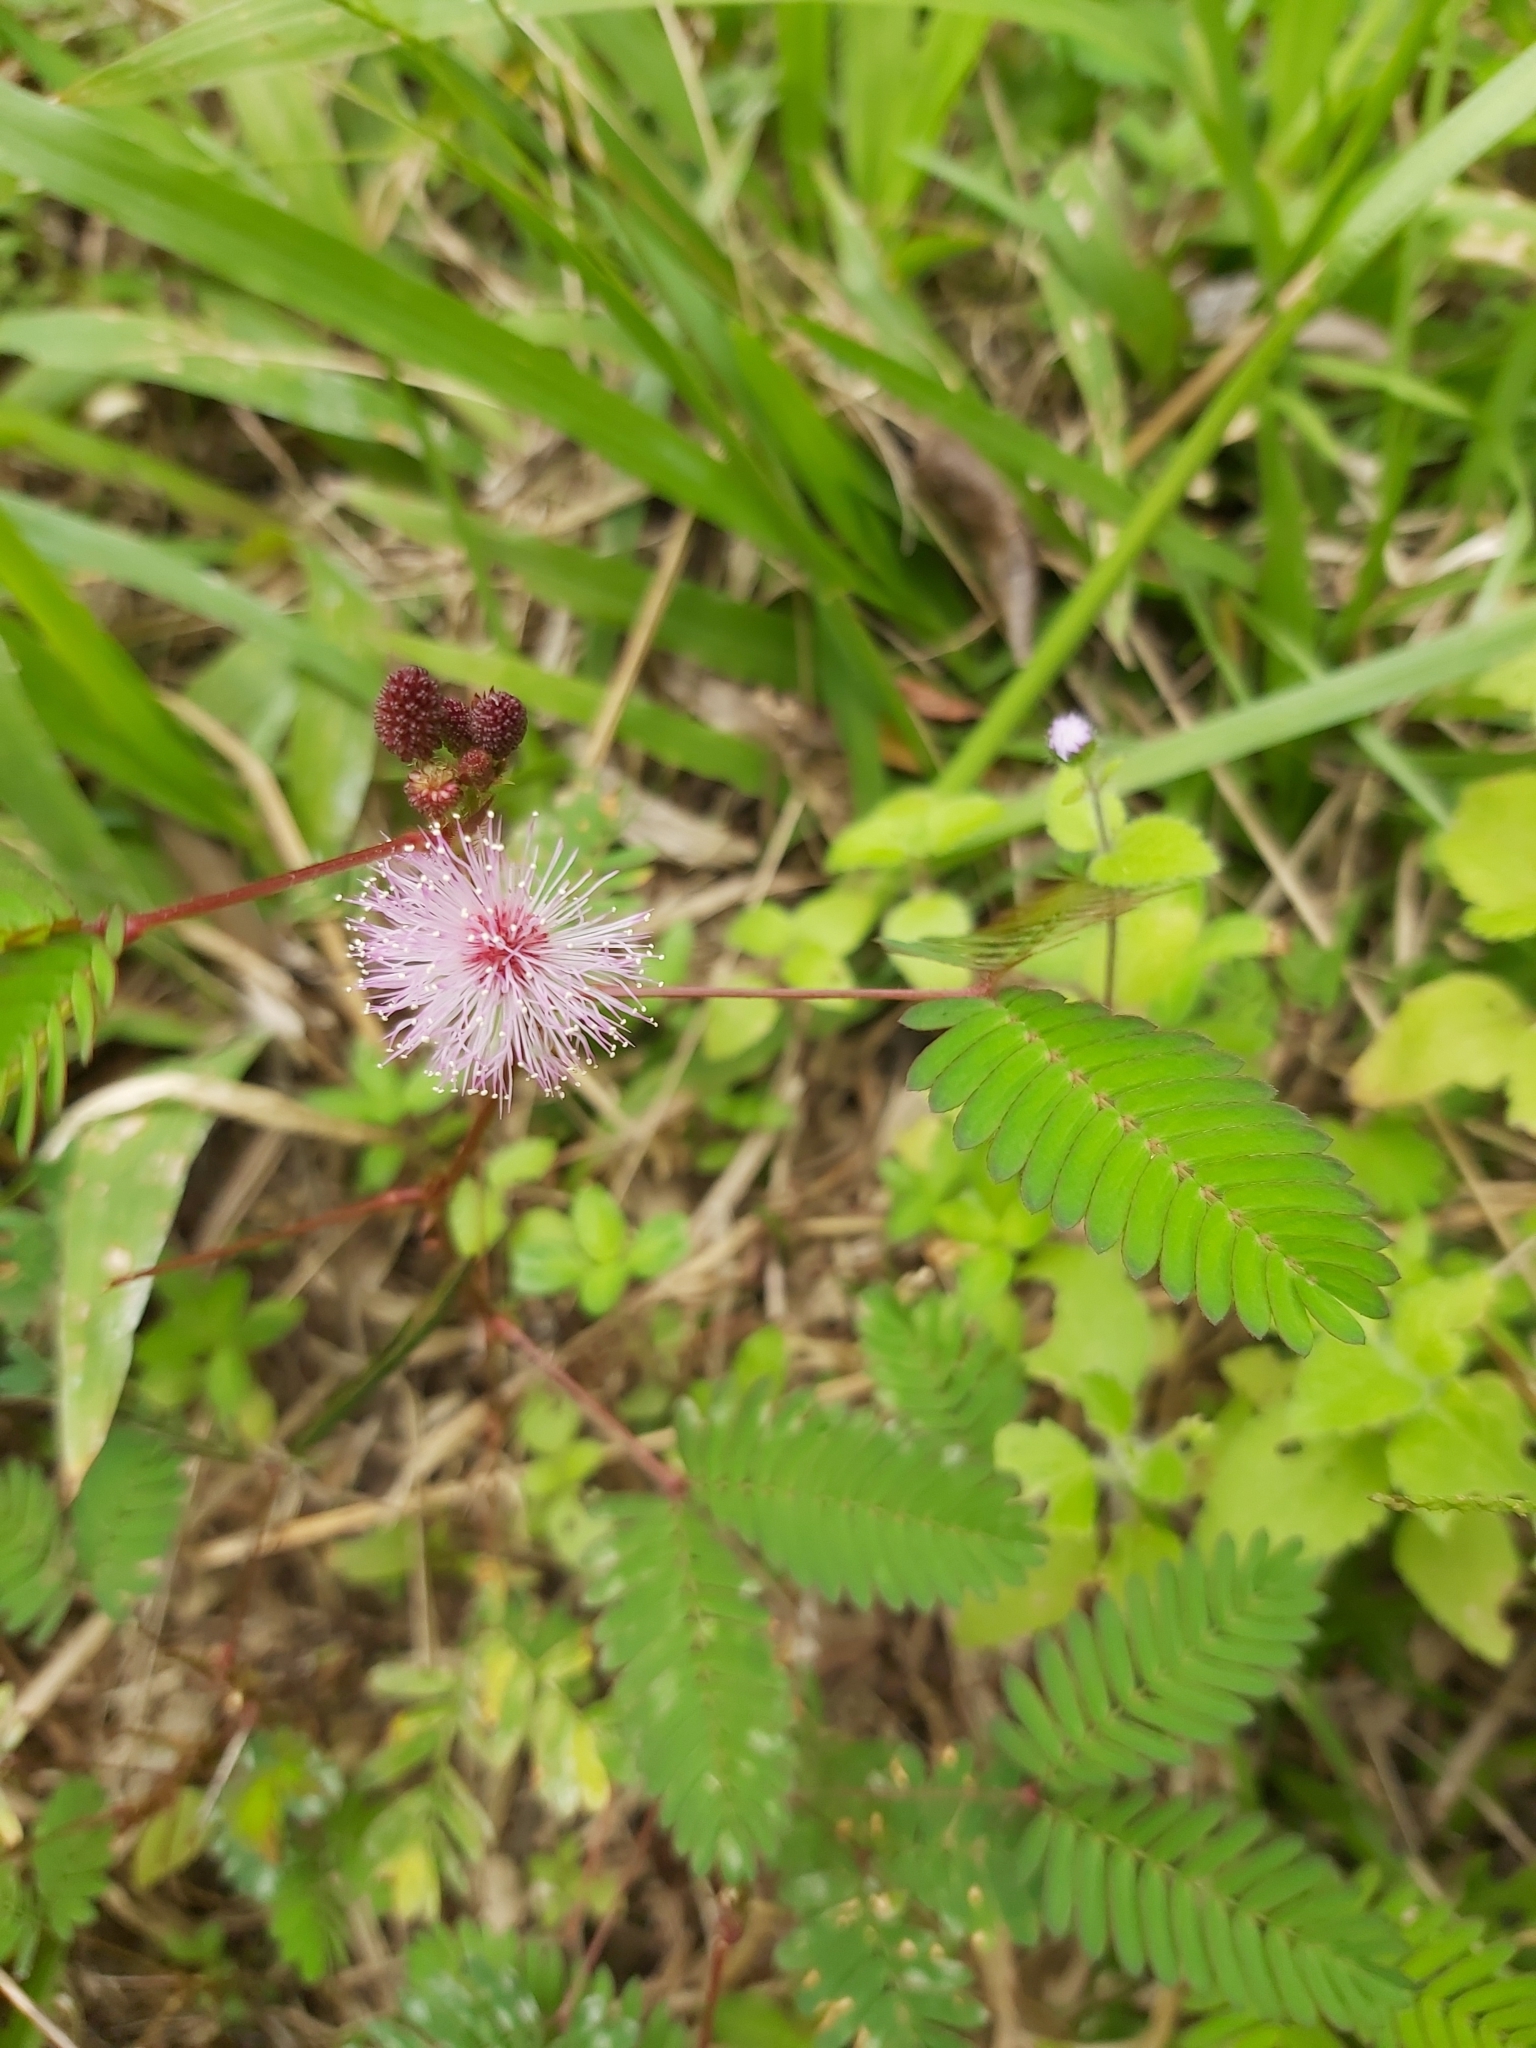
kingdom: Plantae
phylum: Tracheophyta
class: Magnoliopsida
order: Fabales
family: Fabaceae
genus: Mimosa
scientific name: Mimosa pudica
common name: Sensitive plant
